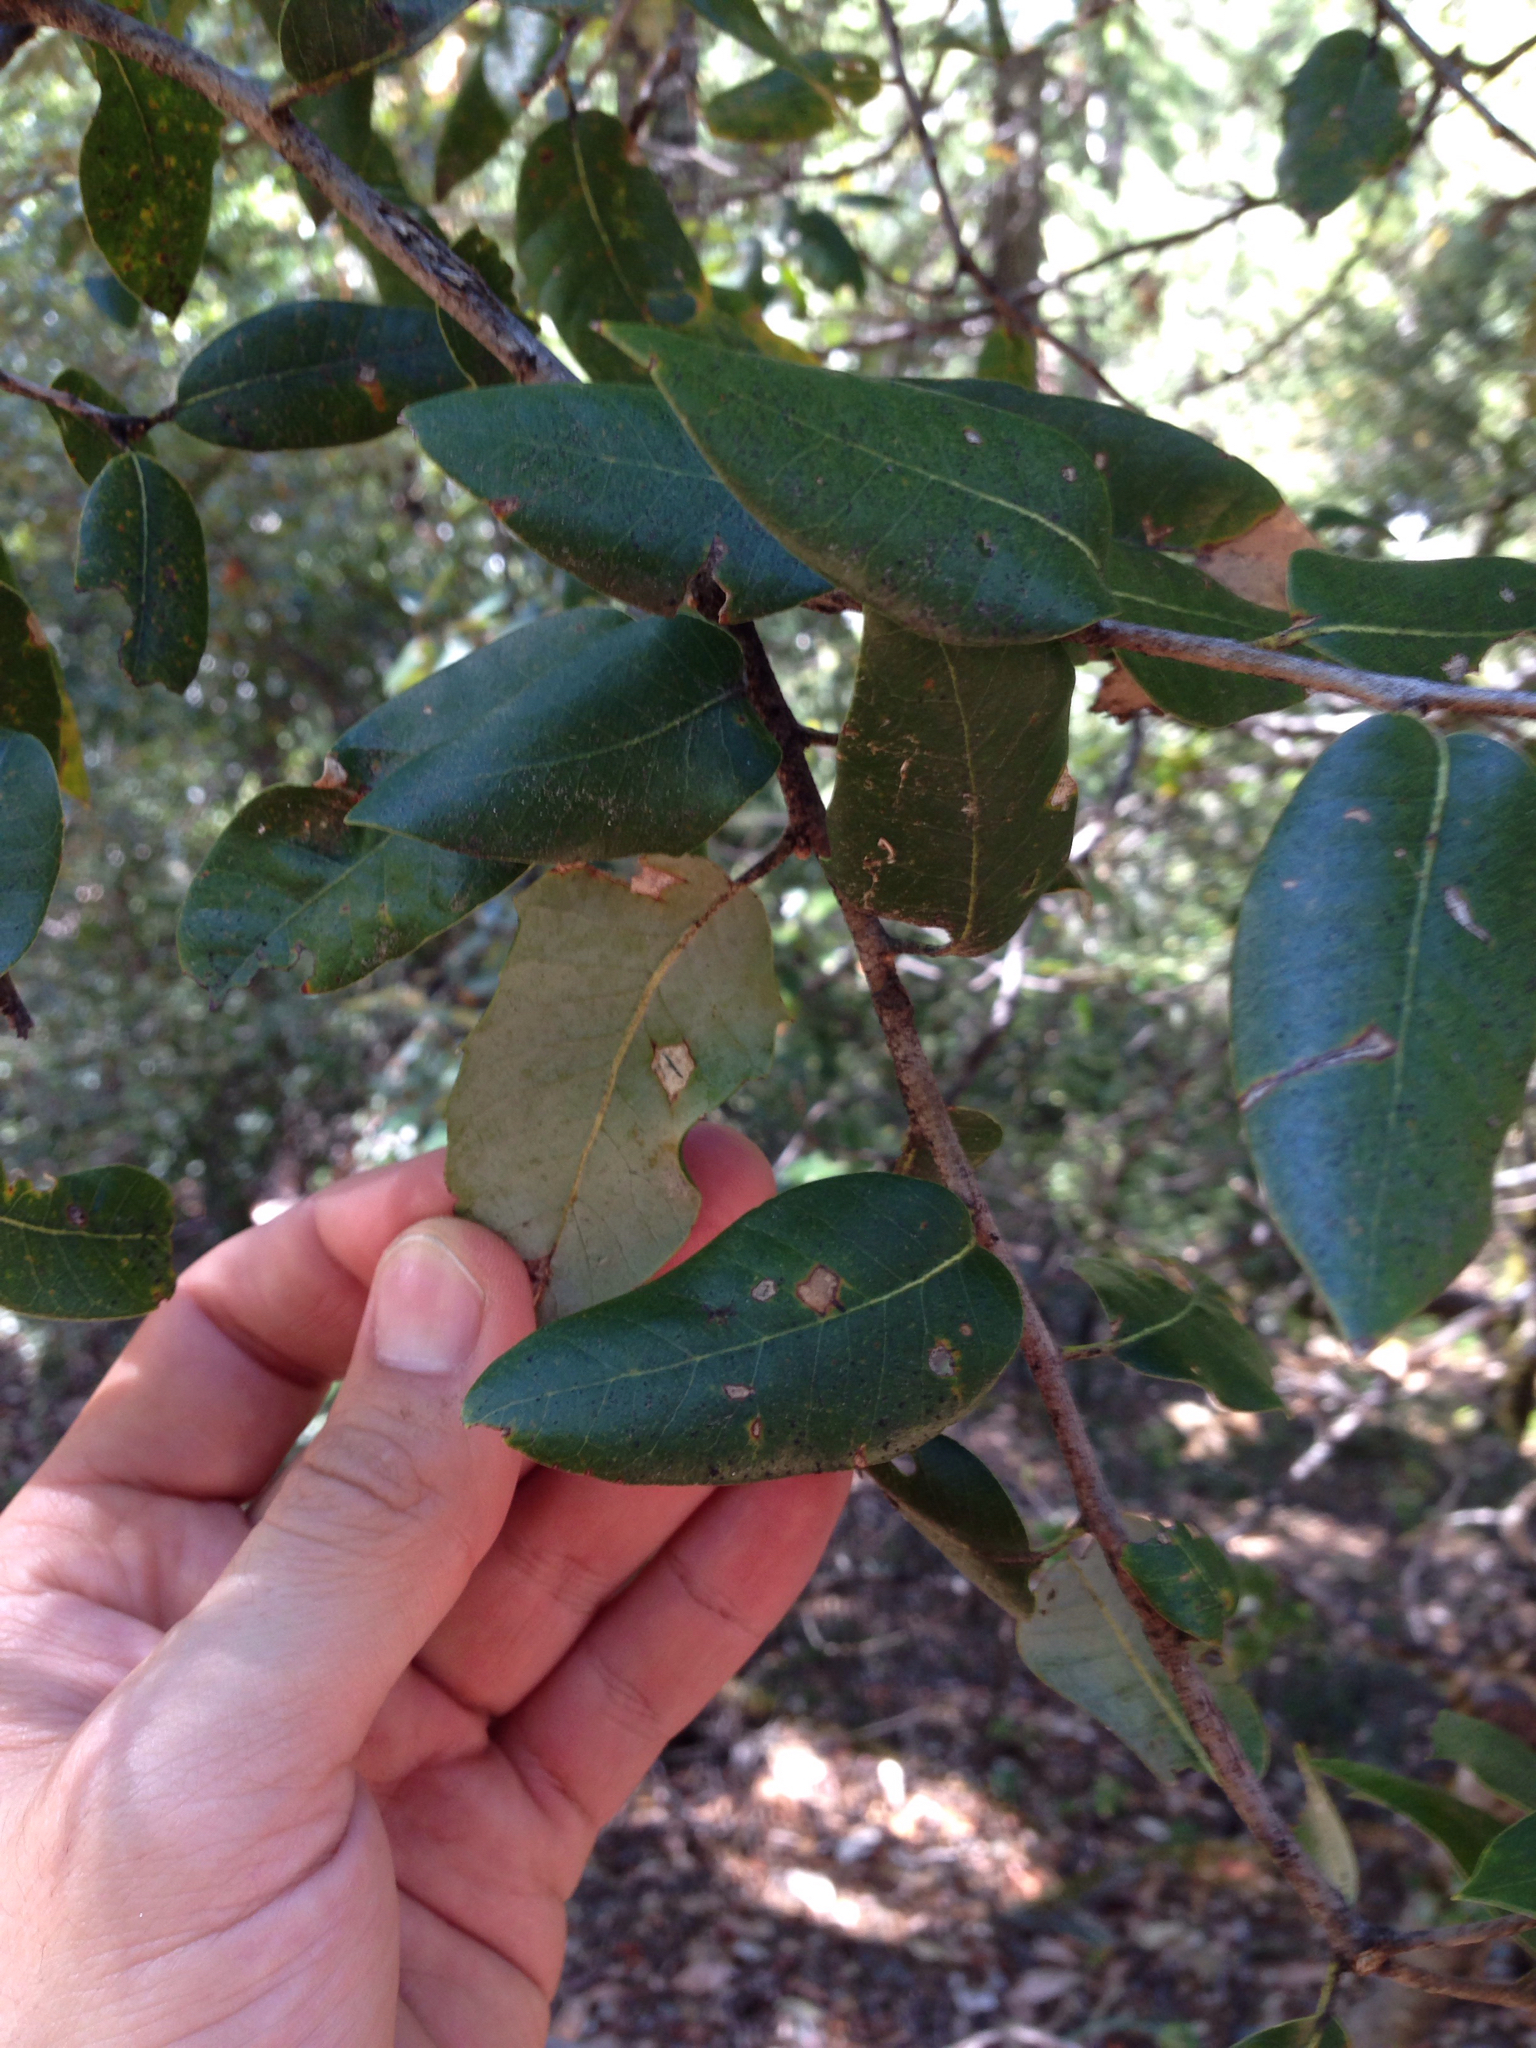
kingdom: Plantae
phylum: Tracheophyta
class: Magnoliopsida
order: Fagales
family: Fagaceae
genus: Quercus
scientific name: Quercus chrysolepis
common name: Canyon live oak
